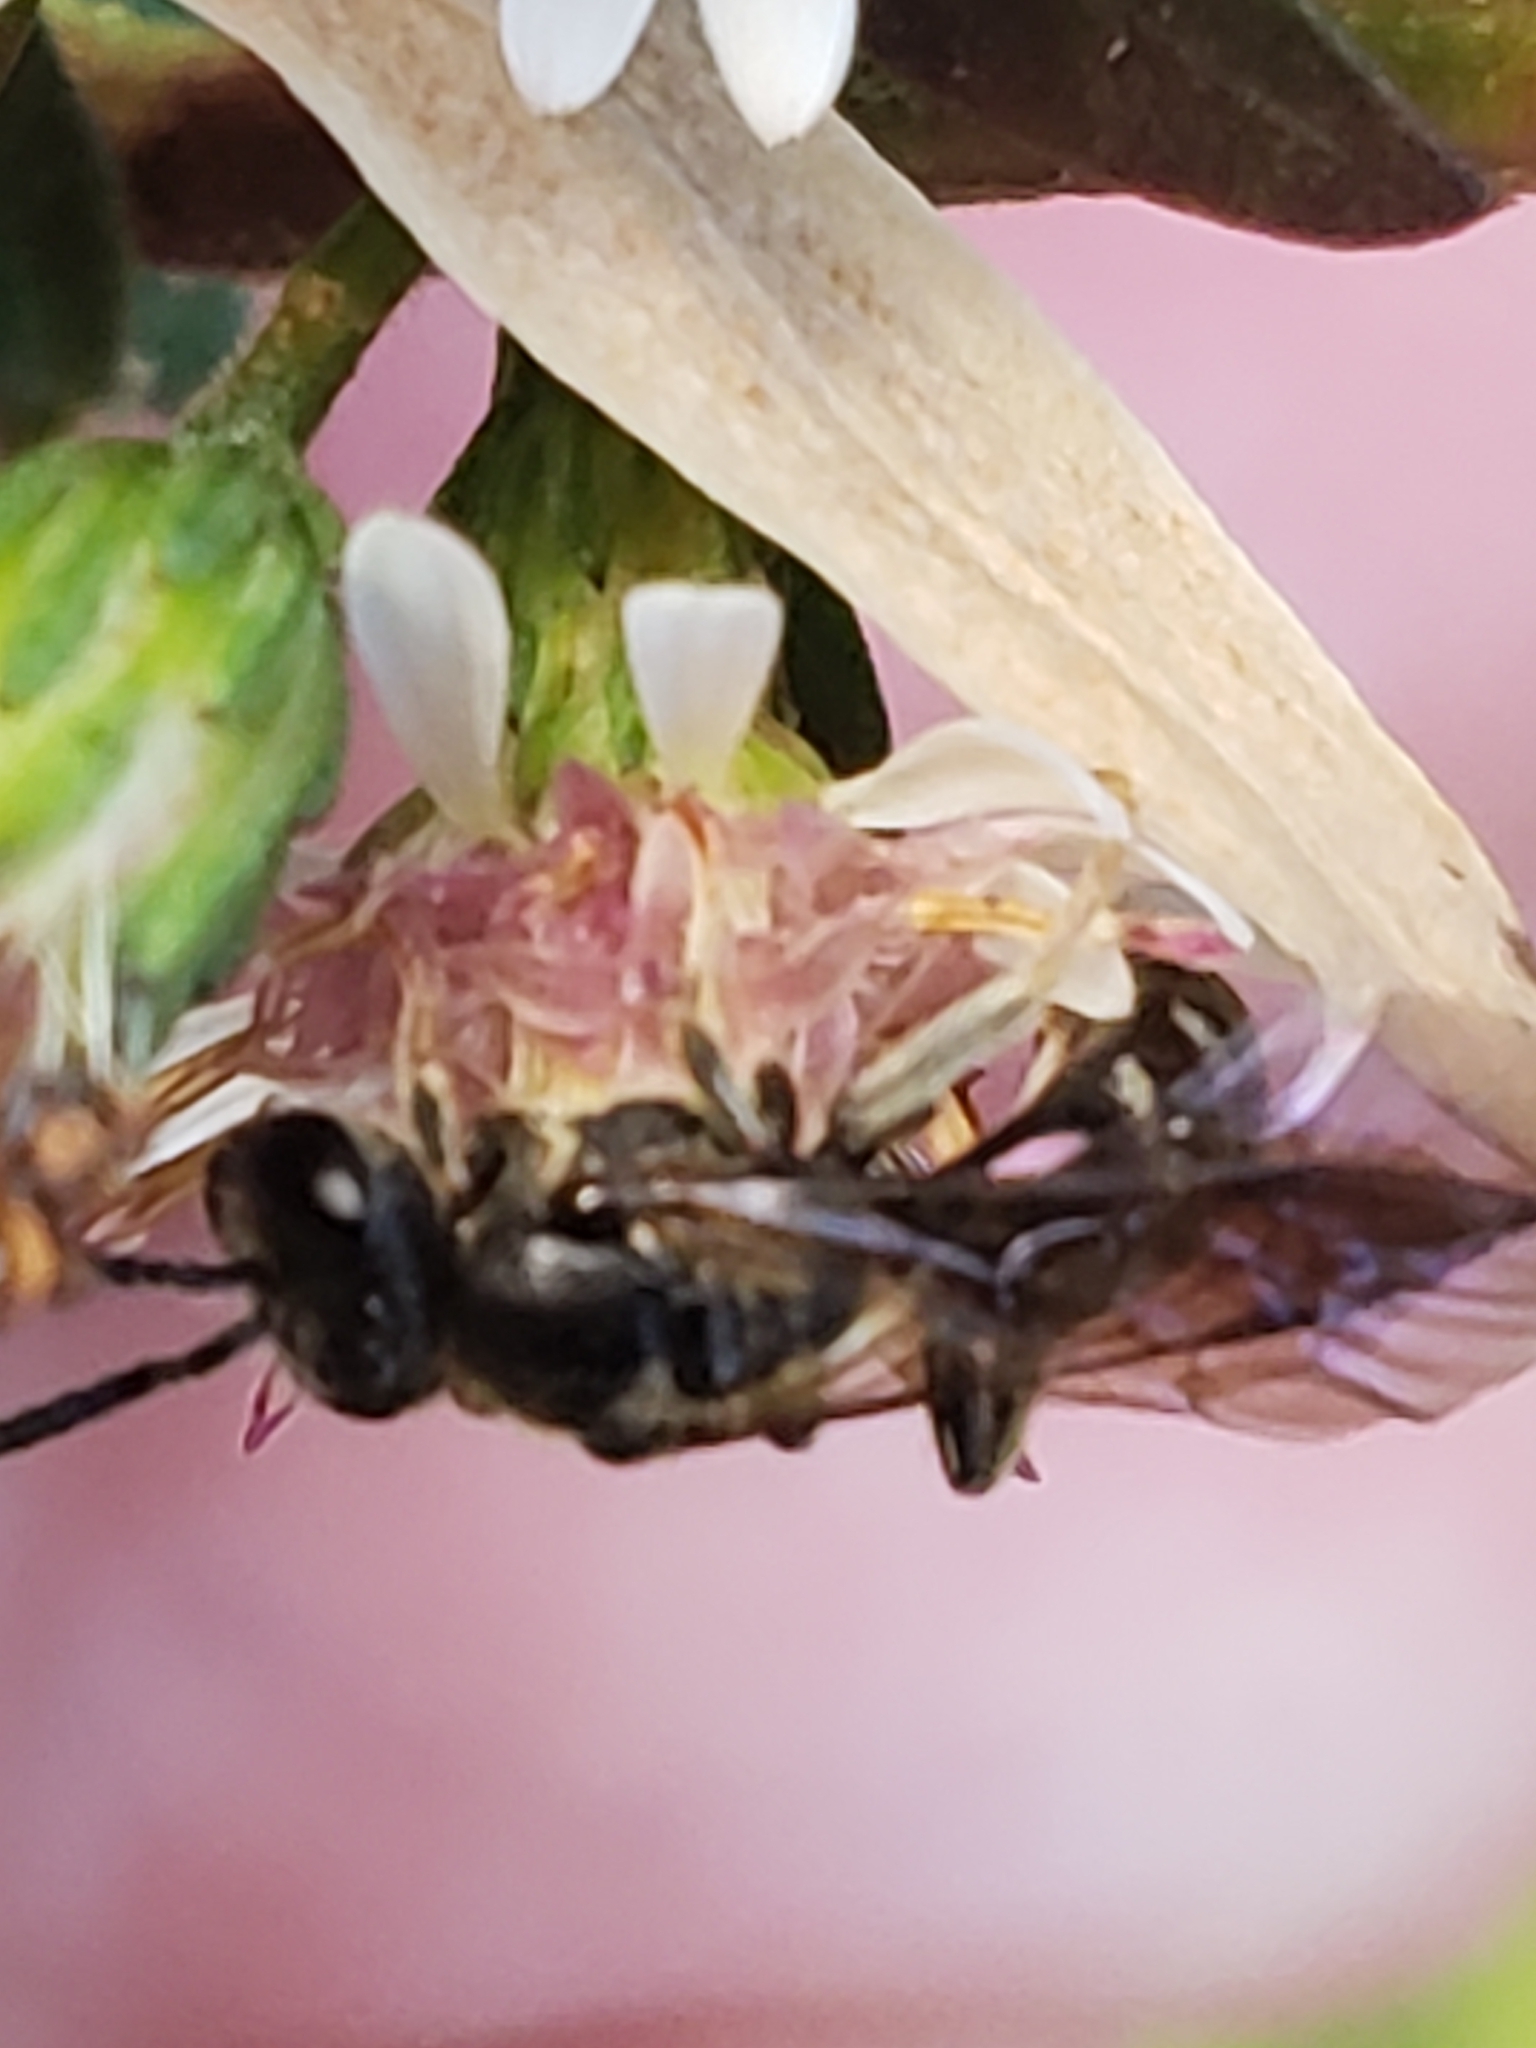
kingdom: Animalia
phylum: Arthropoda
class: Insecta
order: Hymenoptera
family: Halictidae
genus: Lasioglossum
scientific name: Lasioglossum fuscipenne
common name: Brown-winged sweat bee
